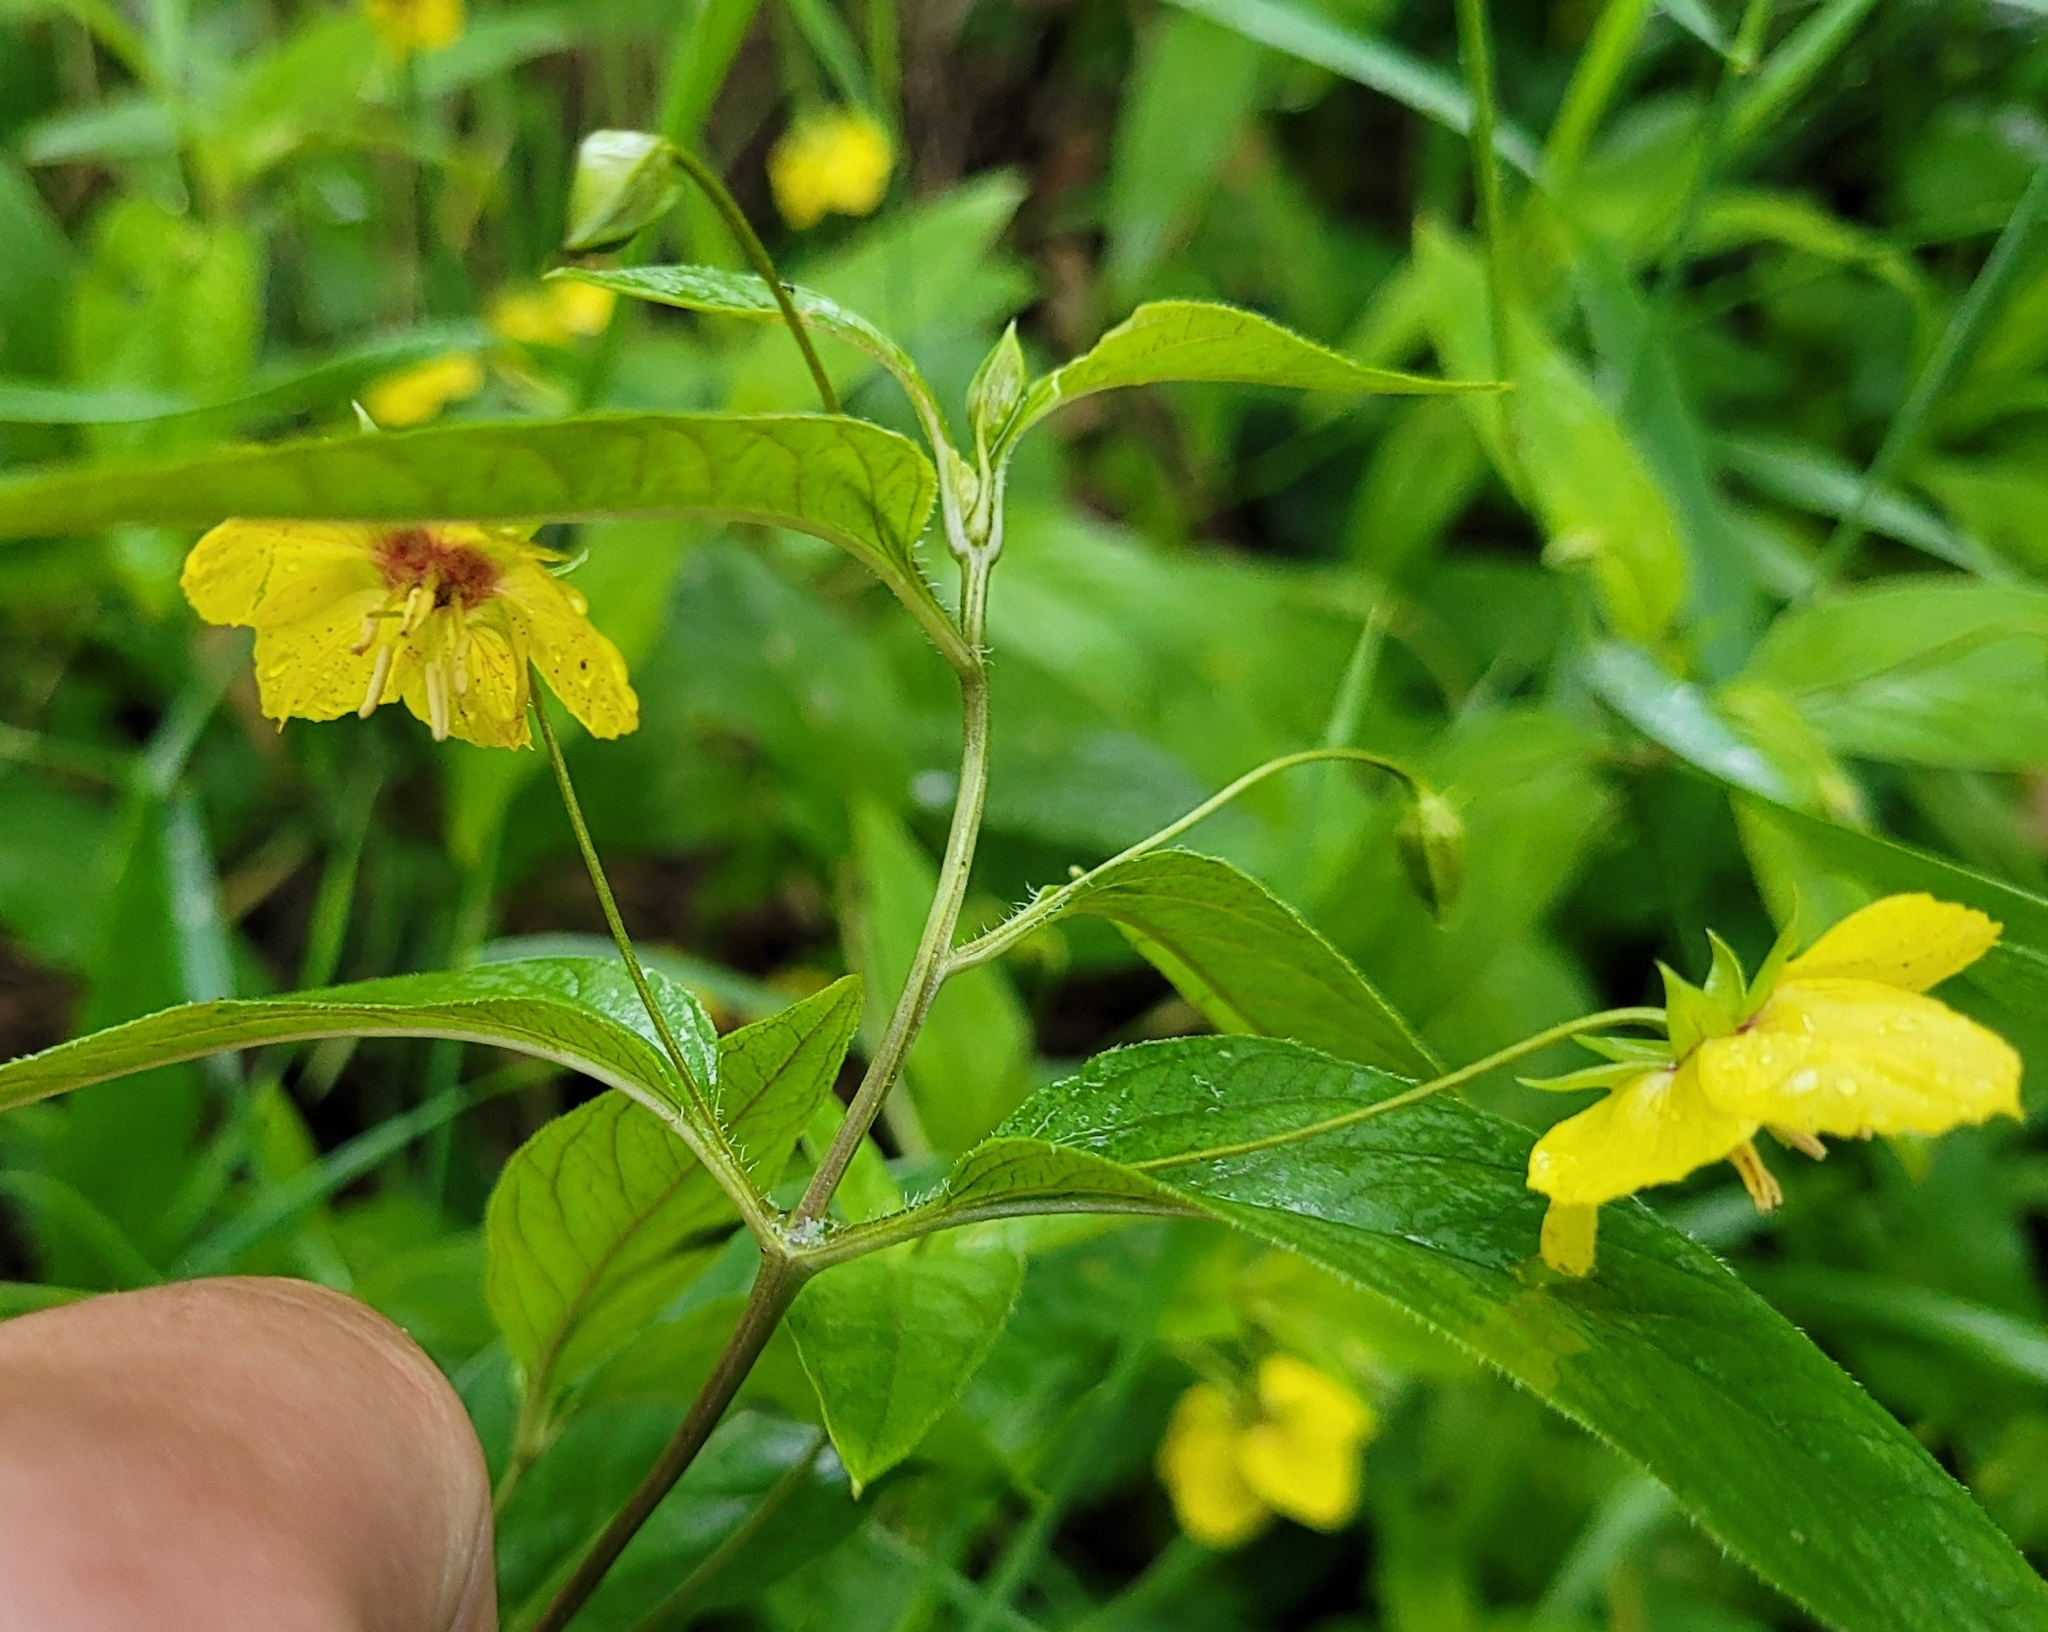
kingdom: Plantae
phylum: Tracheophyta
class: Magnoliopsida
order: Ericales
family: Primulaceae
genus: Lysimachia
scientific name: Lysimachia ciliata
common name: Fringed loosestrife
